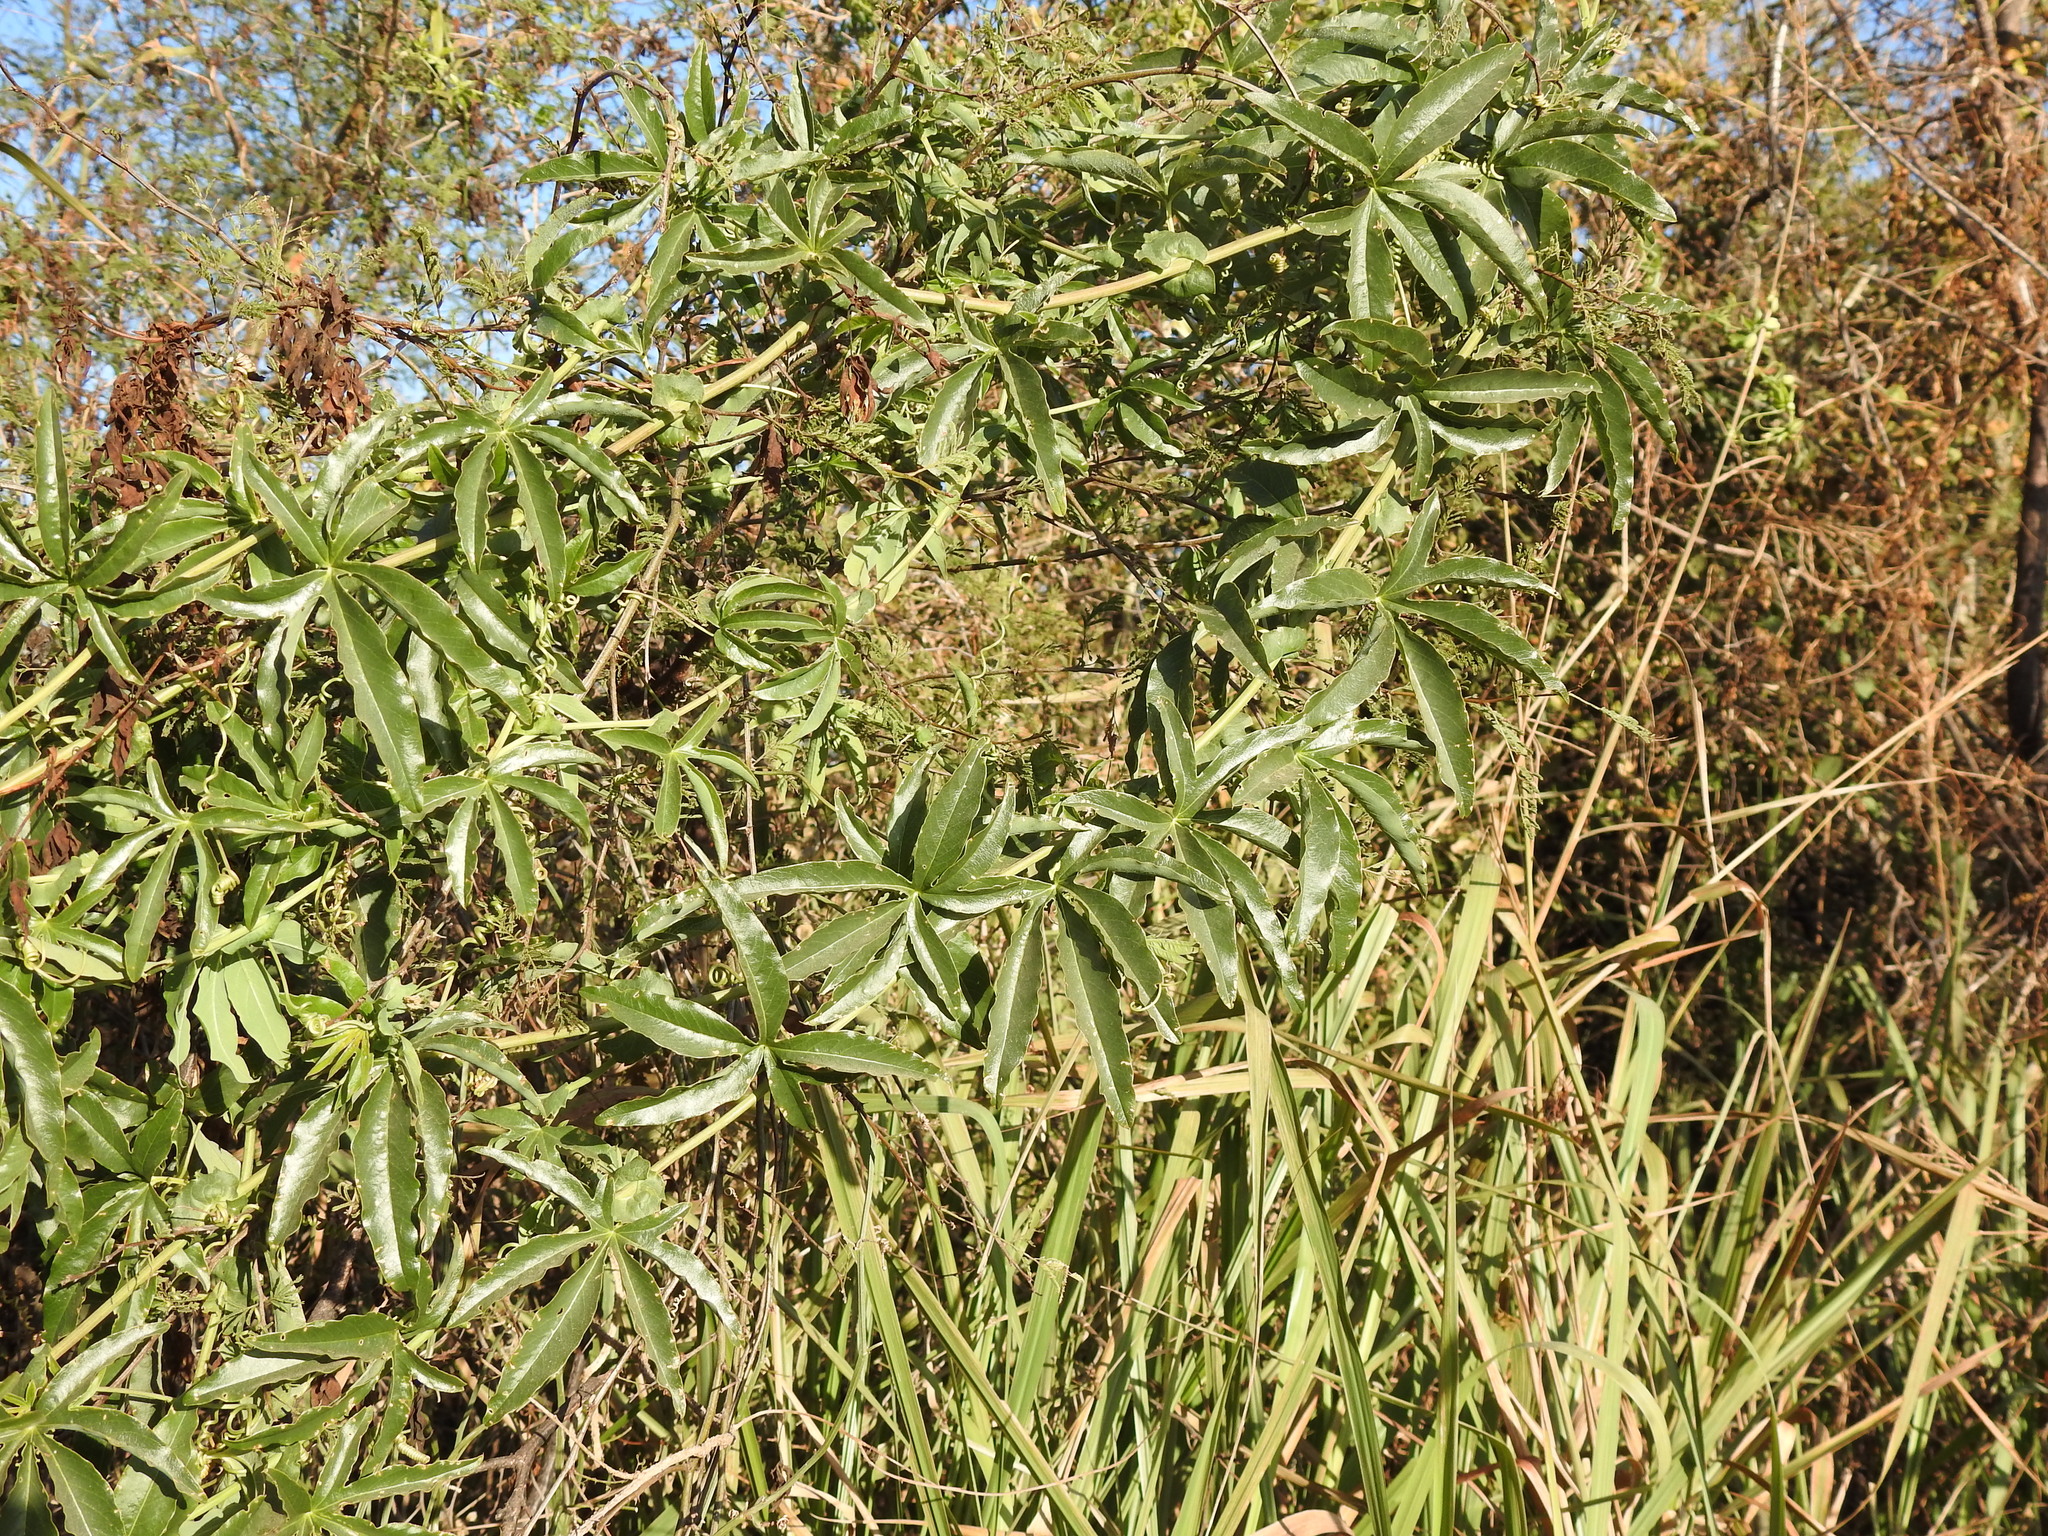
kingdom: Plantae
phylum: Tracheophyta
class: Magnoliopsida
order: Malpighiales
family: Passifloraceae
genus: Passiflora
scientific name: Passiflora caerulea
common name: Blue passionflower
